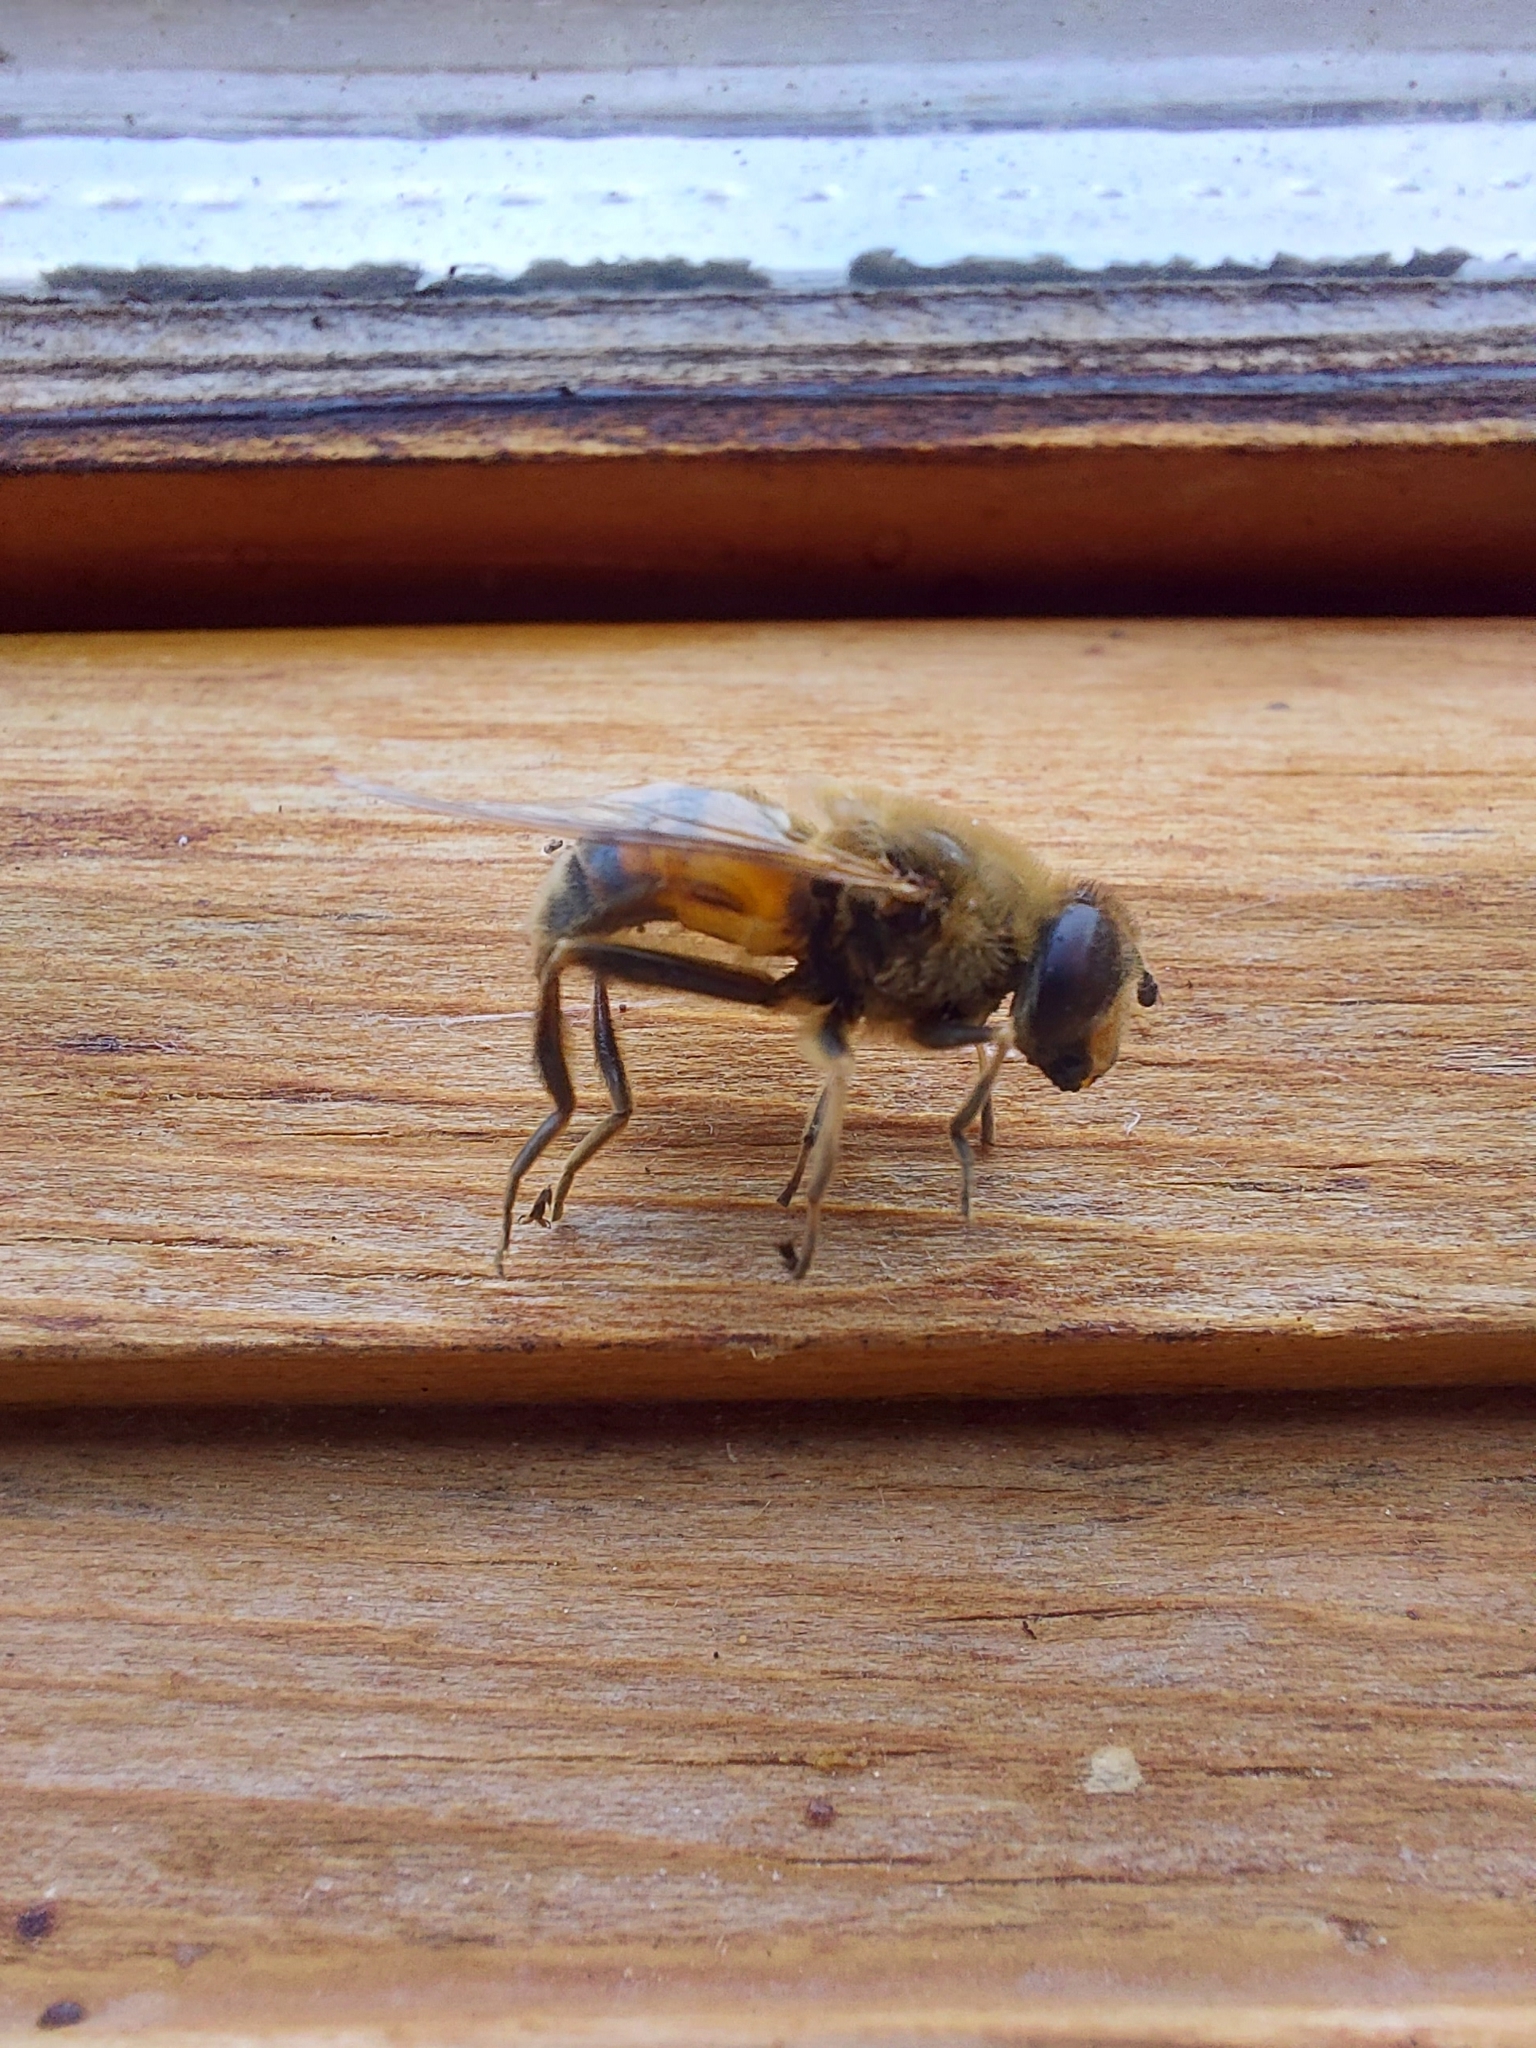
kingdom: Animalia
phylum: Arthropoda
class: Insecta
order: Diptera
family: Syrphidae
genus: Eristalis
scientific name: Eristalis tenax
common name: Drone fly
